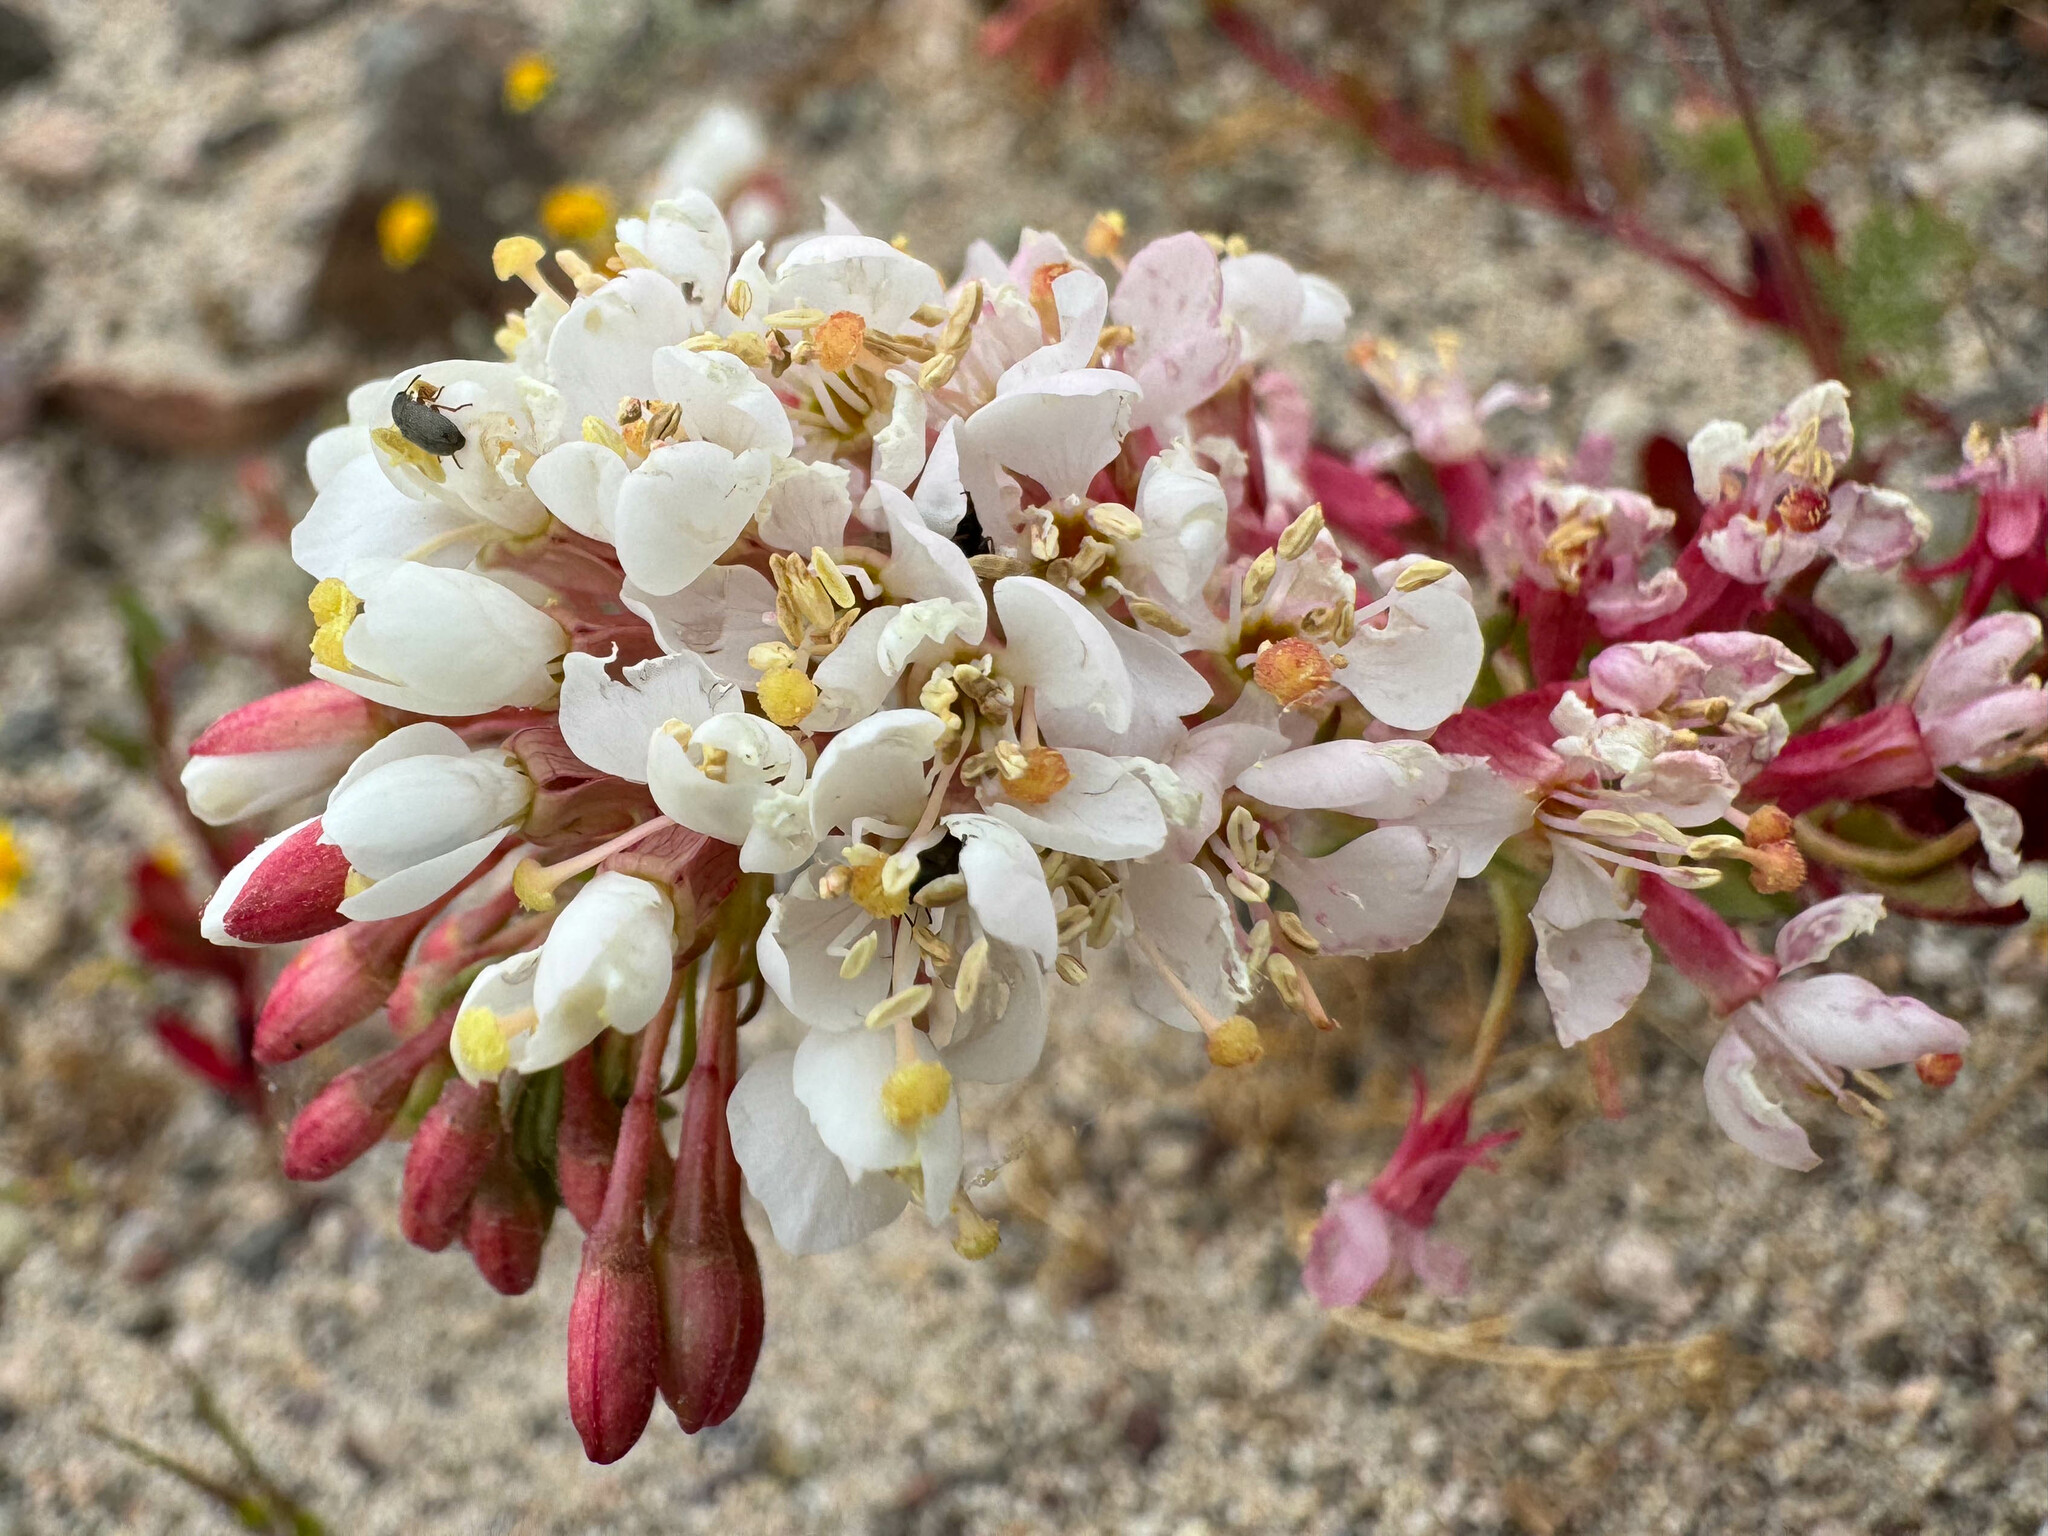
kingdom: Plantae
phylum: Tracheophyta
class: Magnoliopsida
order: Myrtales
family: Onagraceae
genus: Eremothera
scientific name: Eremothera boothii
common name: Booth's evening primrose
